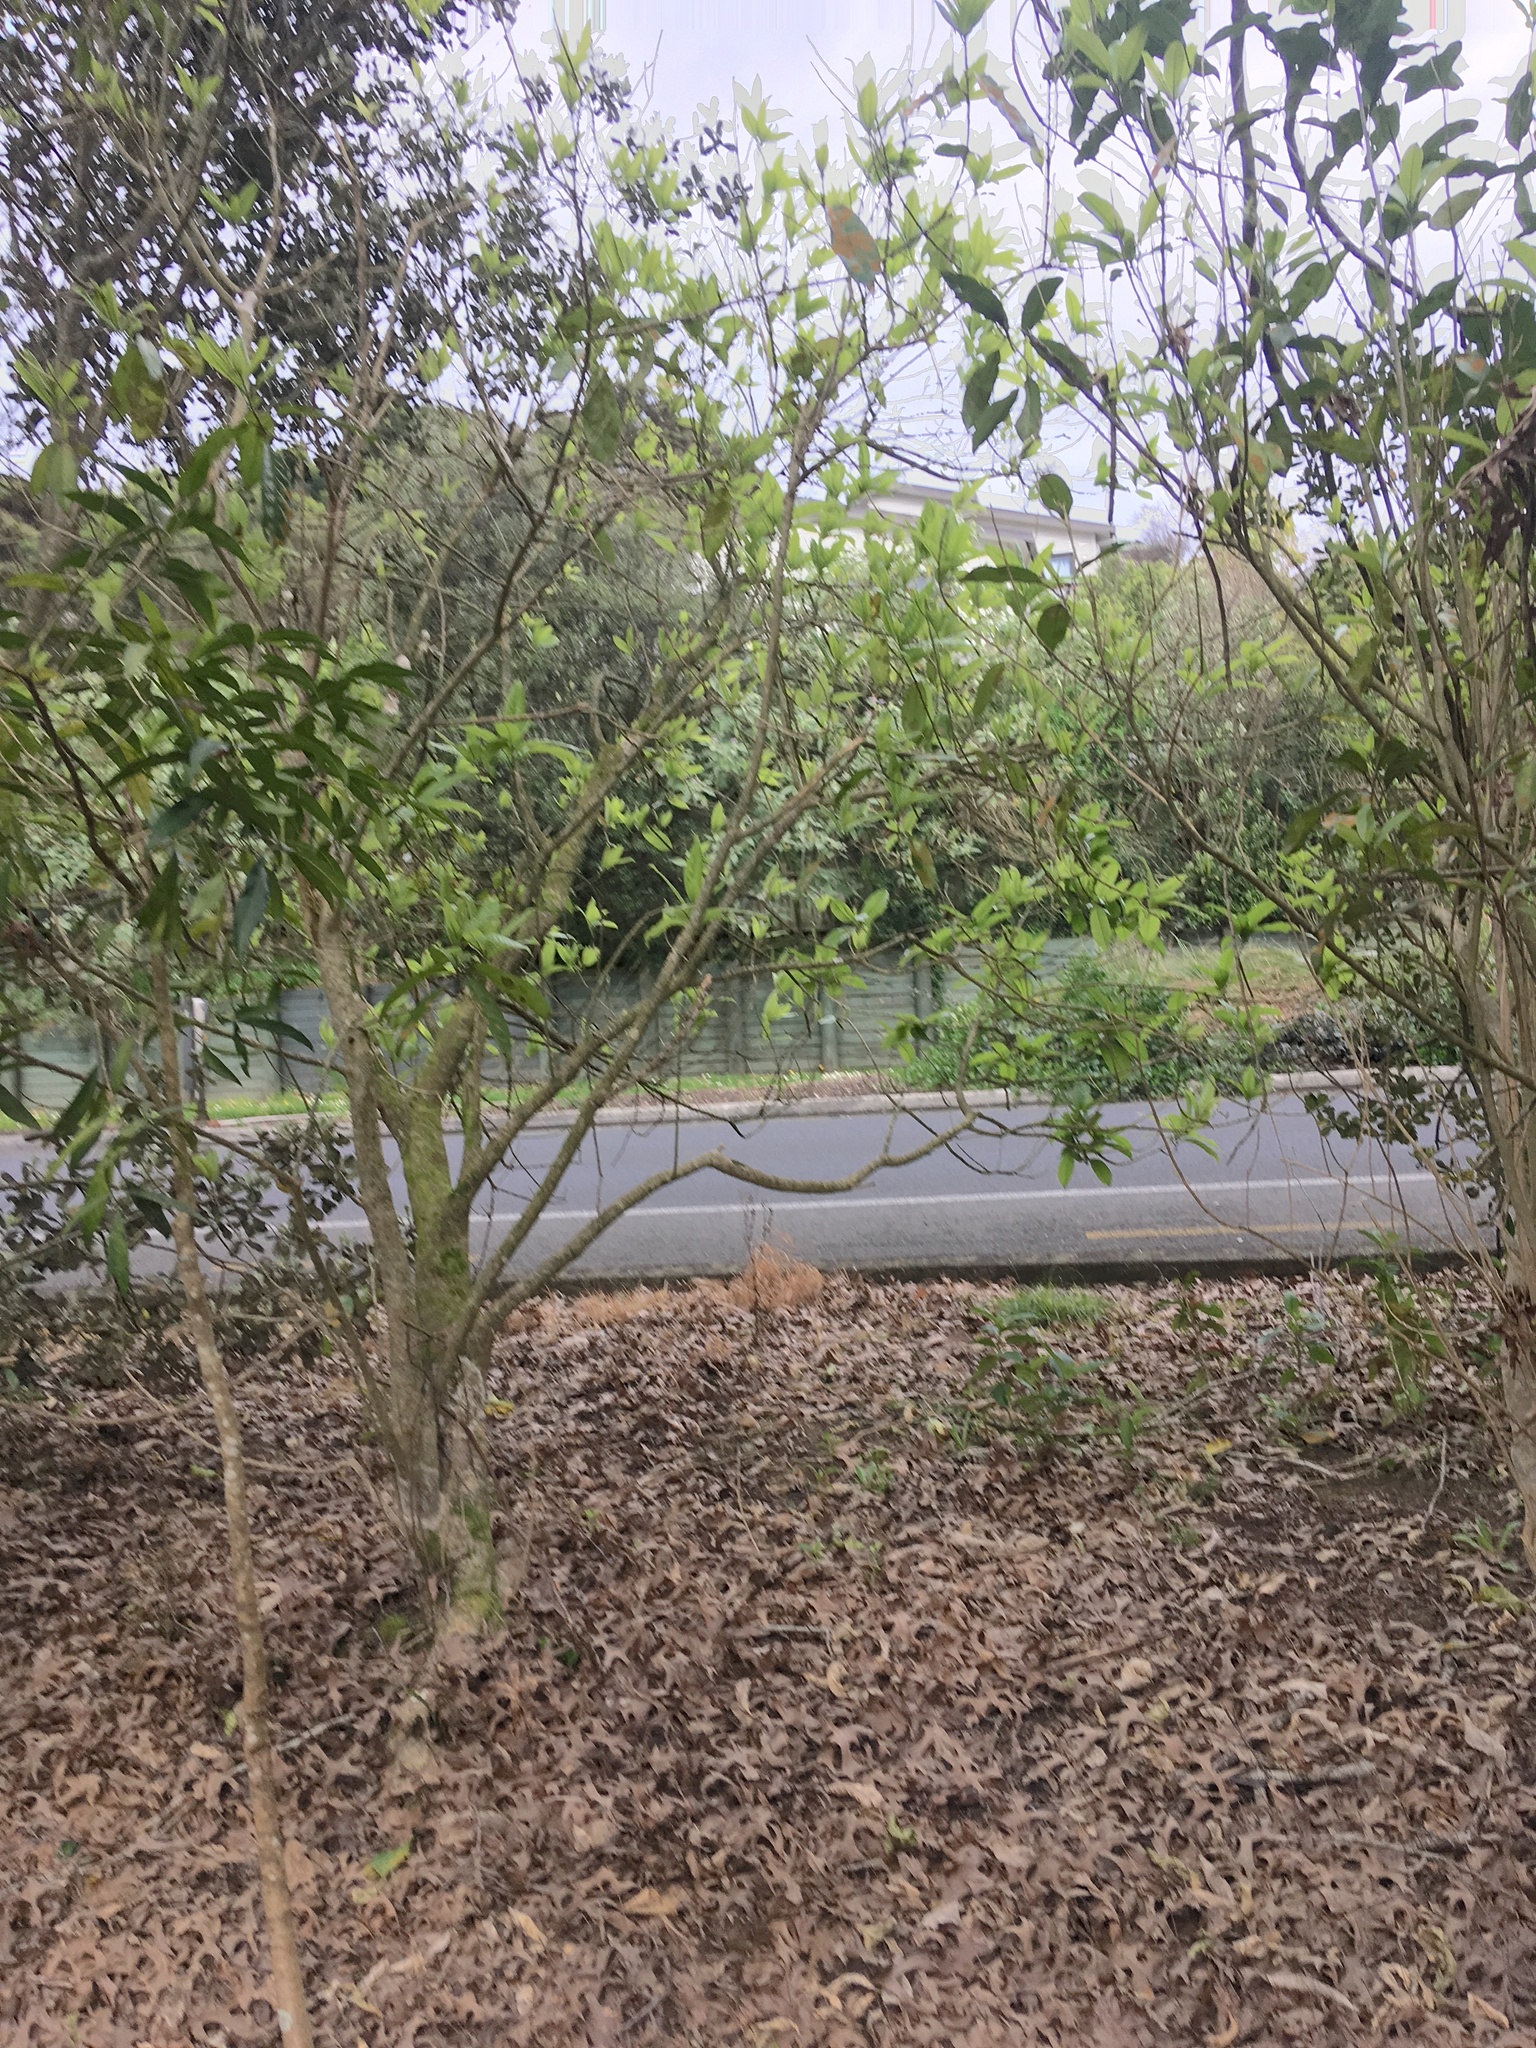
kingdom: Plantae
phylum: Tracheophyta
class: Magnoliopsida
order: Solanales
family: Solanaceae
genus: Solanum
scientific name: Solanum mauritianum
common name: Earleaf nightshade
